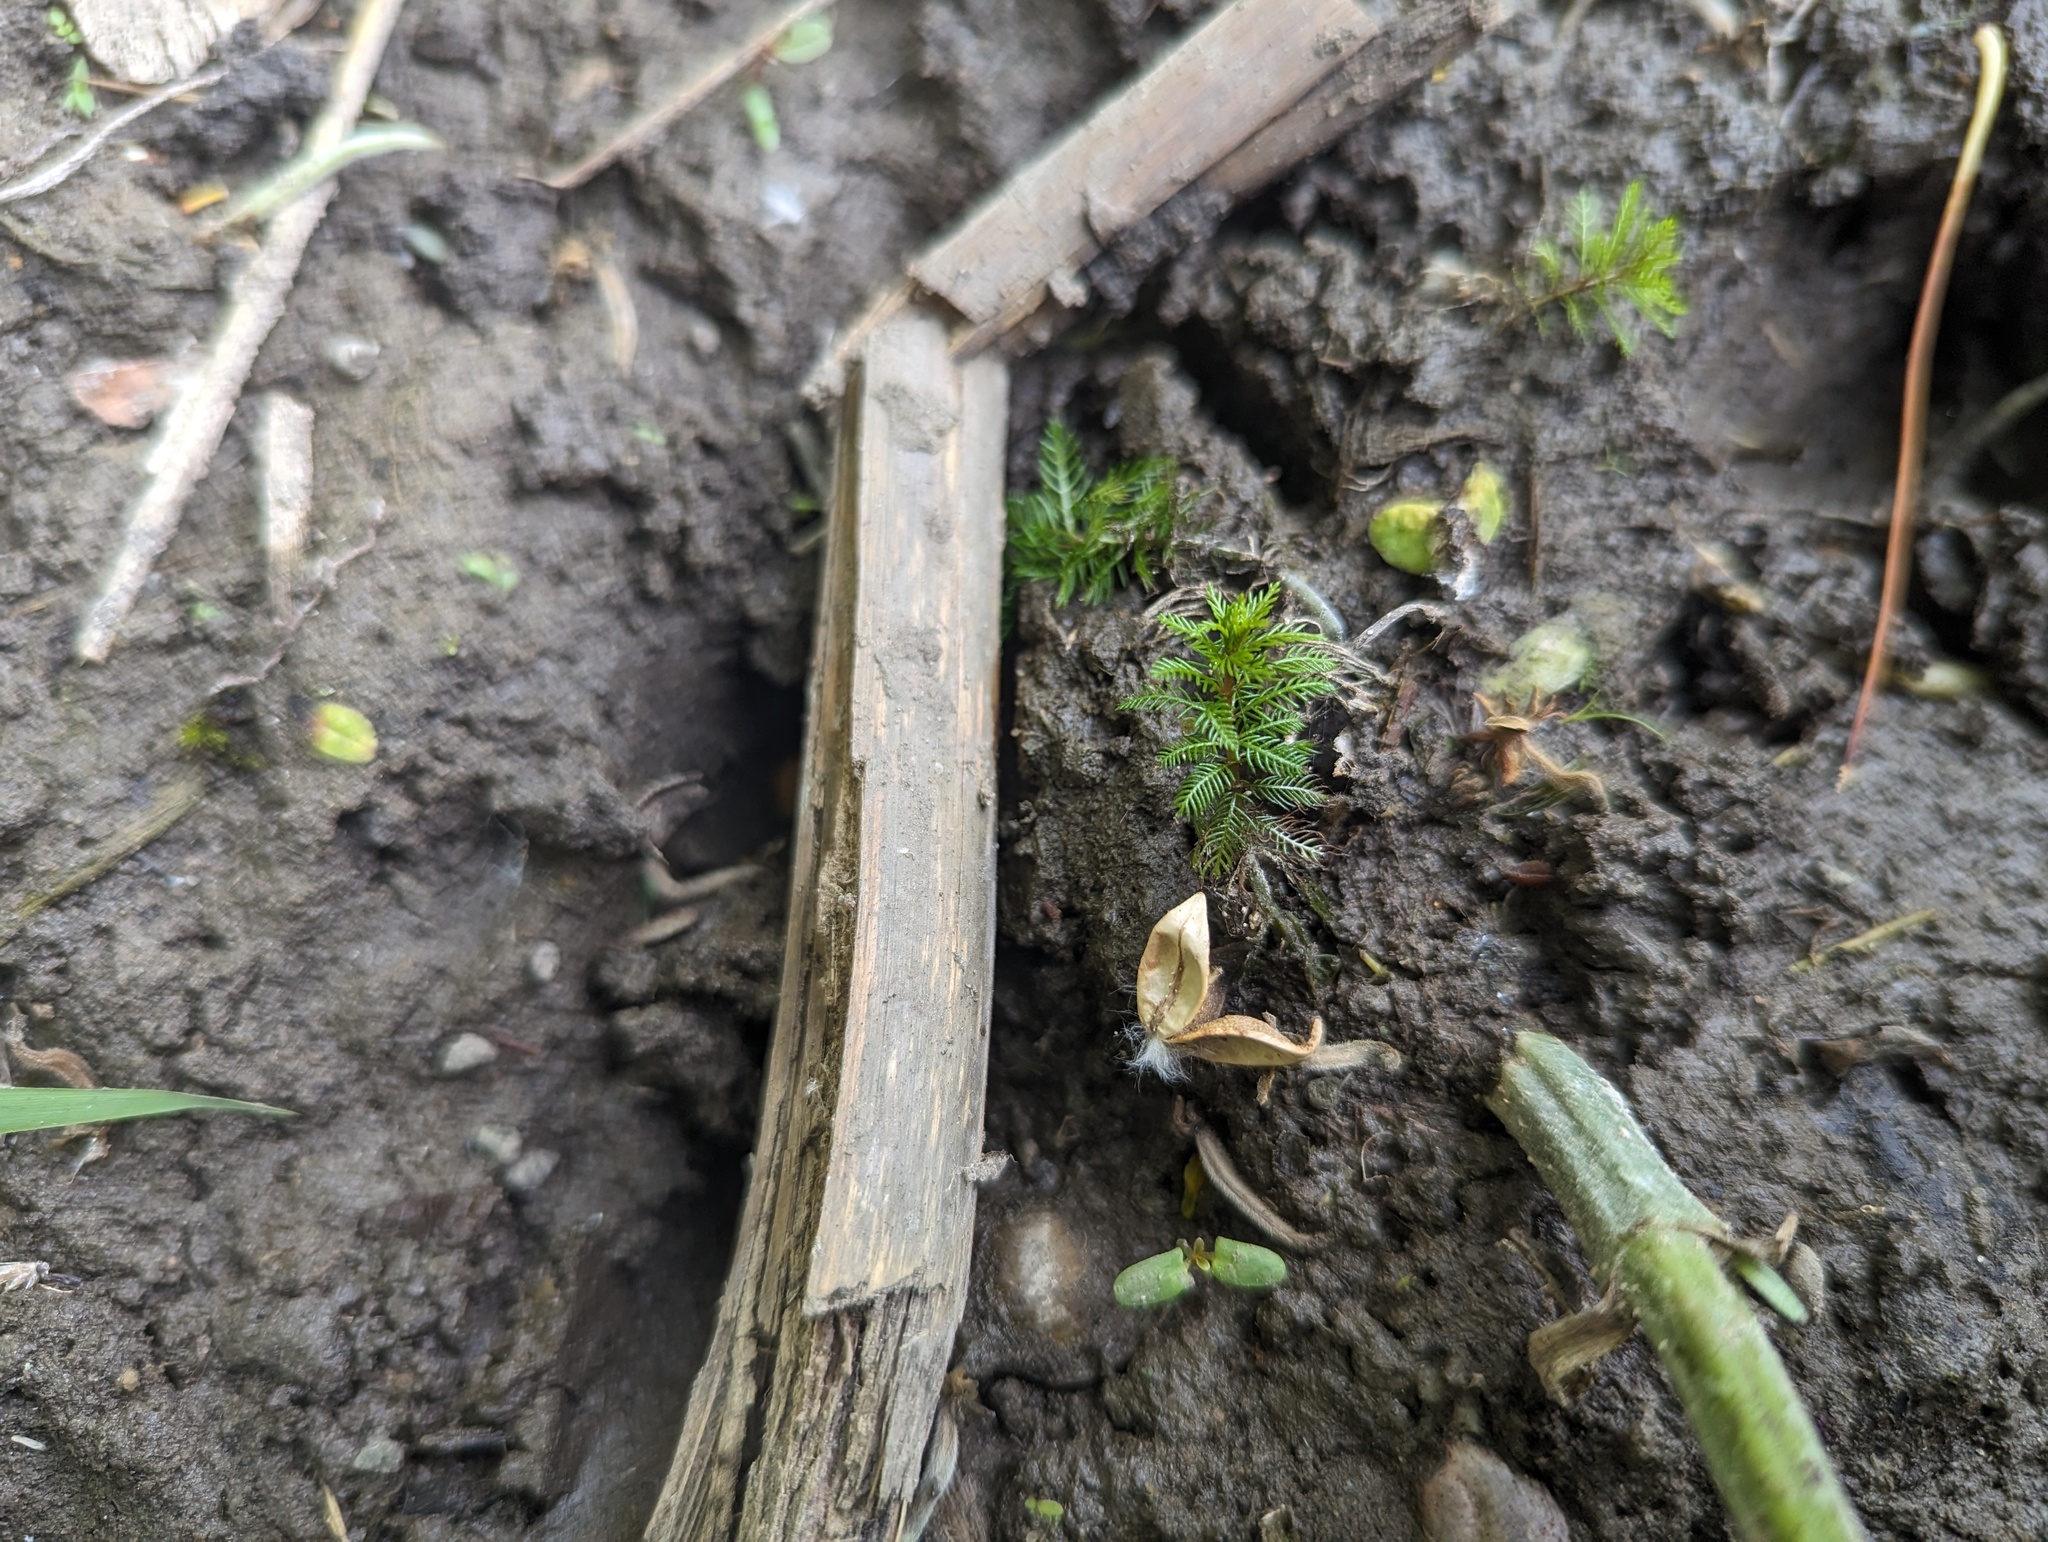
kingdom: Plantae
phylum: Tracheophyta
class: Magnoliopsida
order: Saxifragales
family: Haloragaceae
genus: Myriophyllum
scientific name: Myriophyllum verticillatum
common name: Whorled water-milfoil
